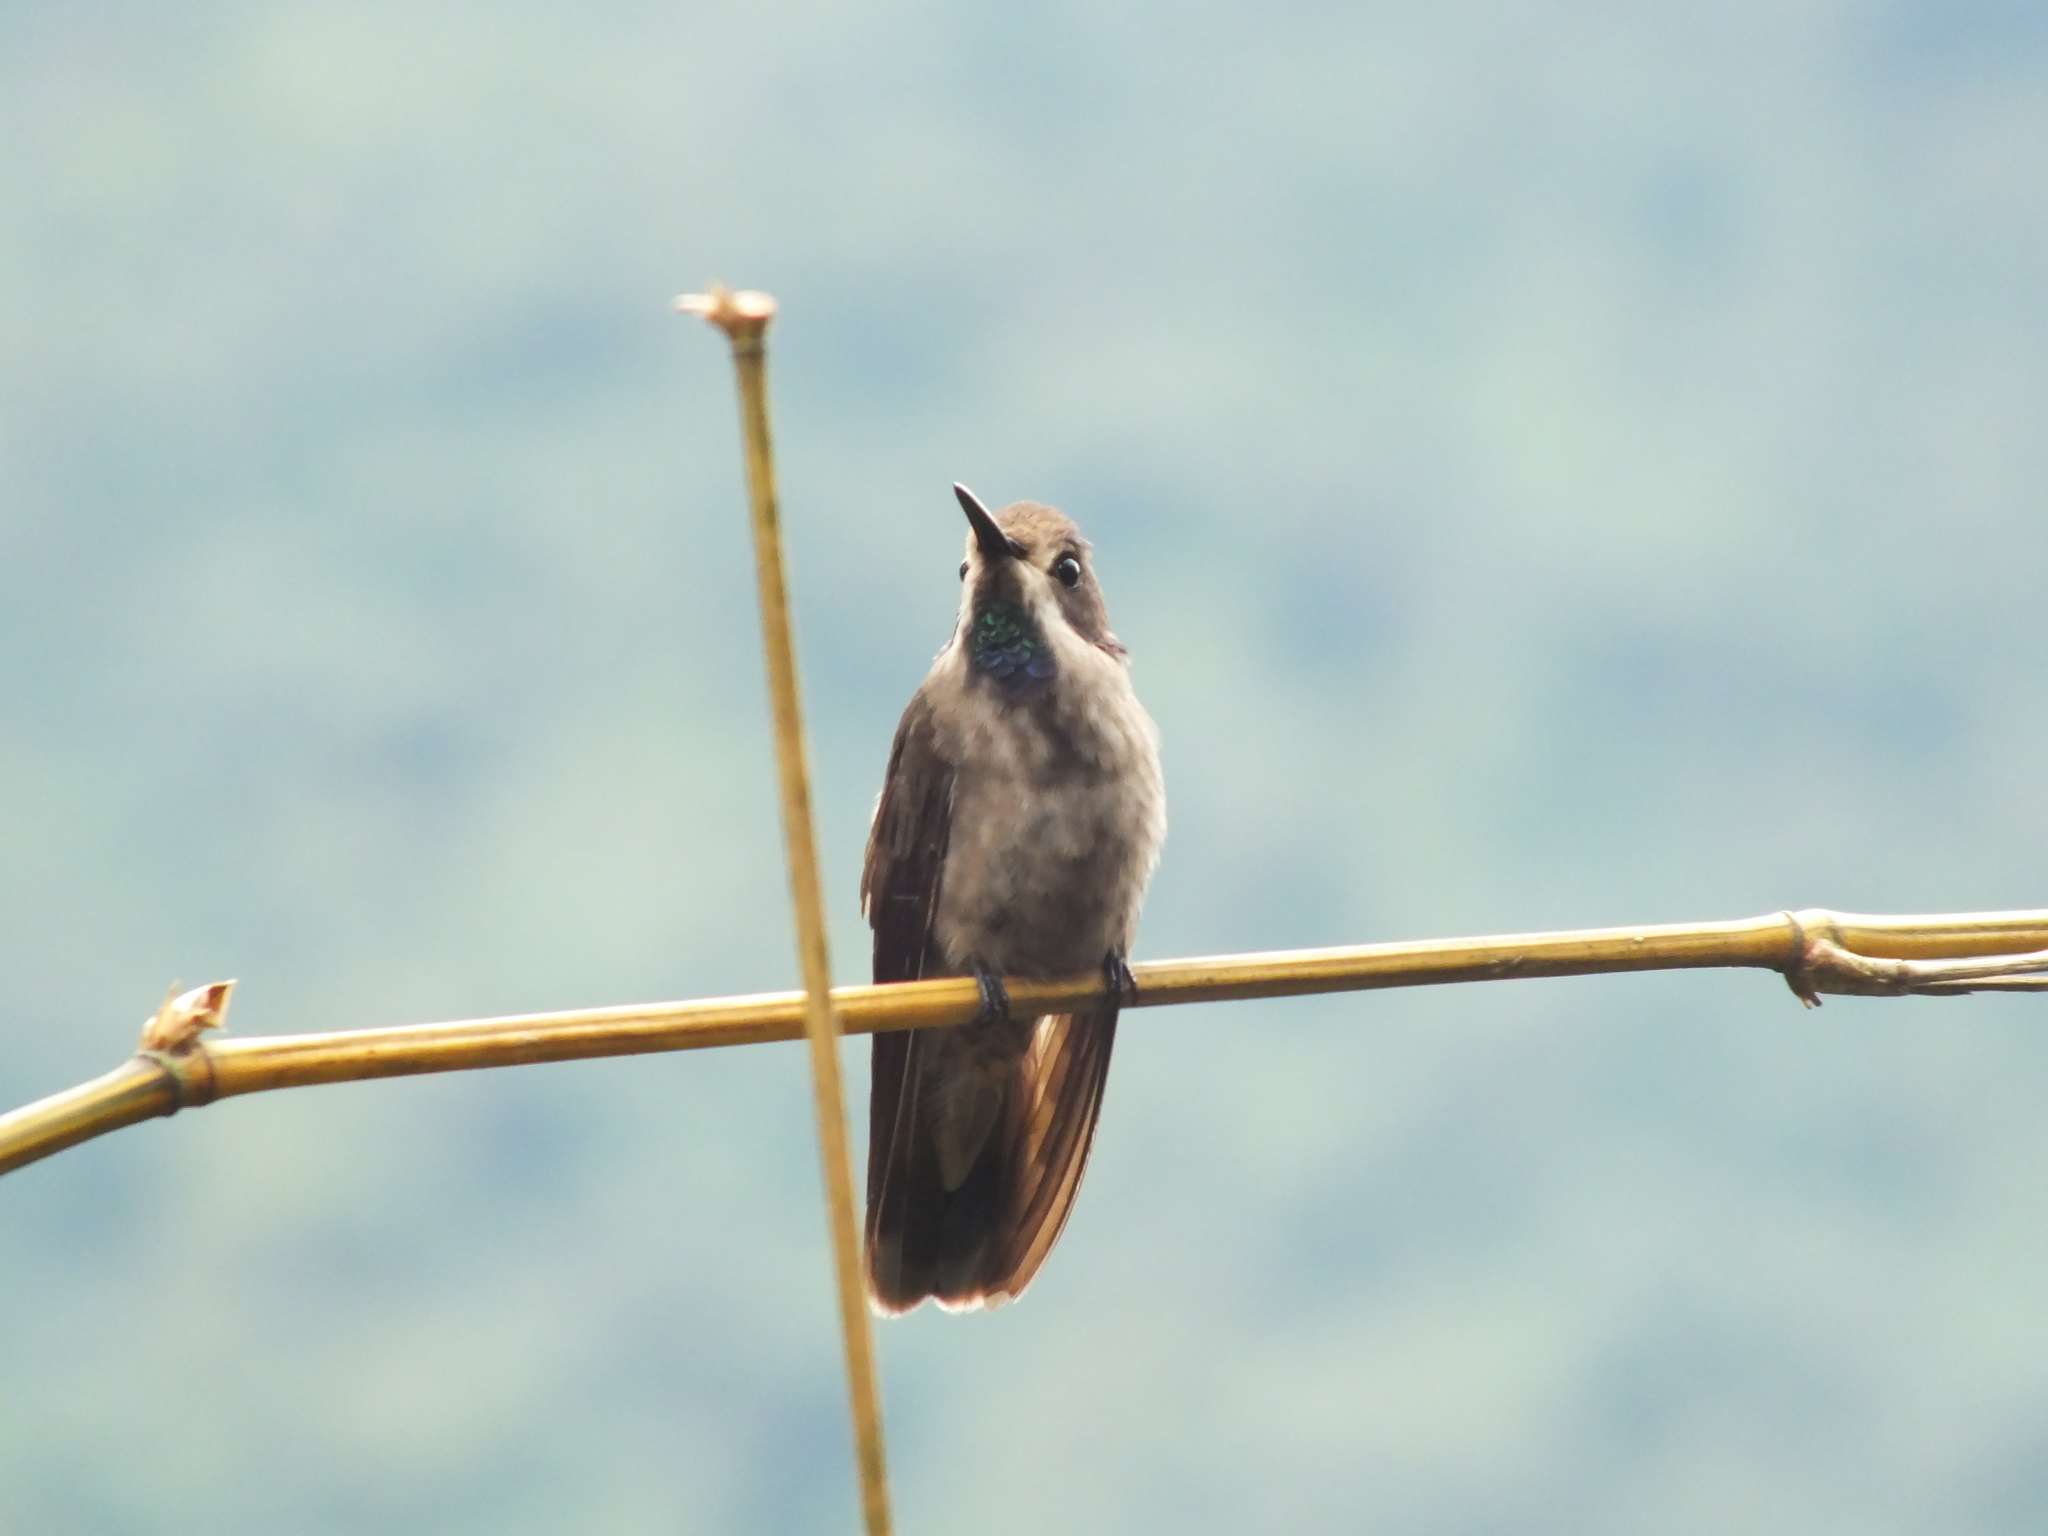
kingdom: Animalia
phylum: Chordata
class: Aves
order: Apodiformes
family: Trochilidae
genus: Colibri
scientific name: Colibri delphinae
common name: Brown violetear
